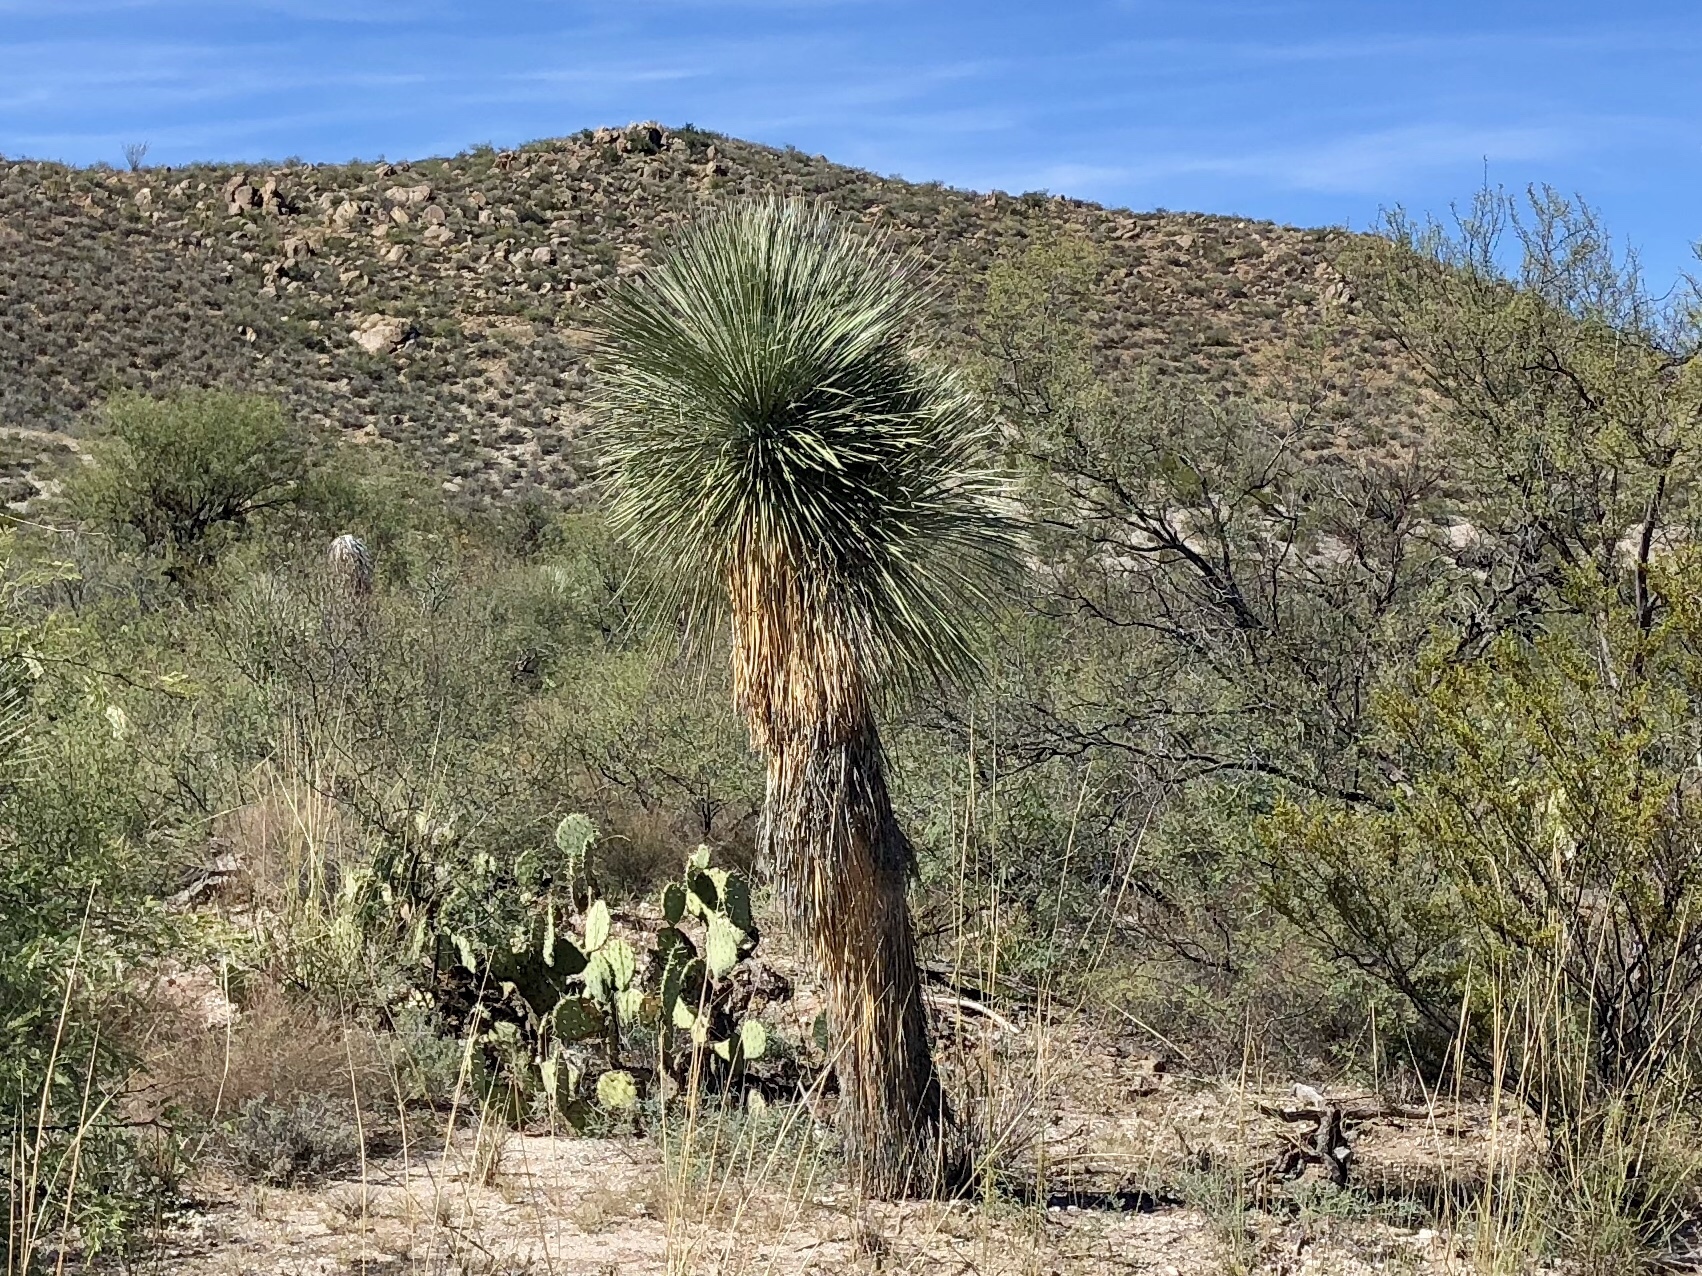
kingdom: Plantae
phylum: Tracheophyta
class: Liliopsida
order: Asparagales
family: Asparagaceae
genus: Yucca
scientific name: Yucca elata
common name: Palmella
